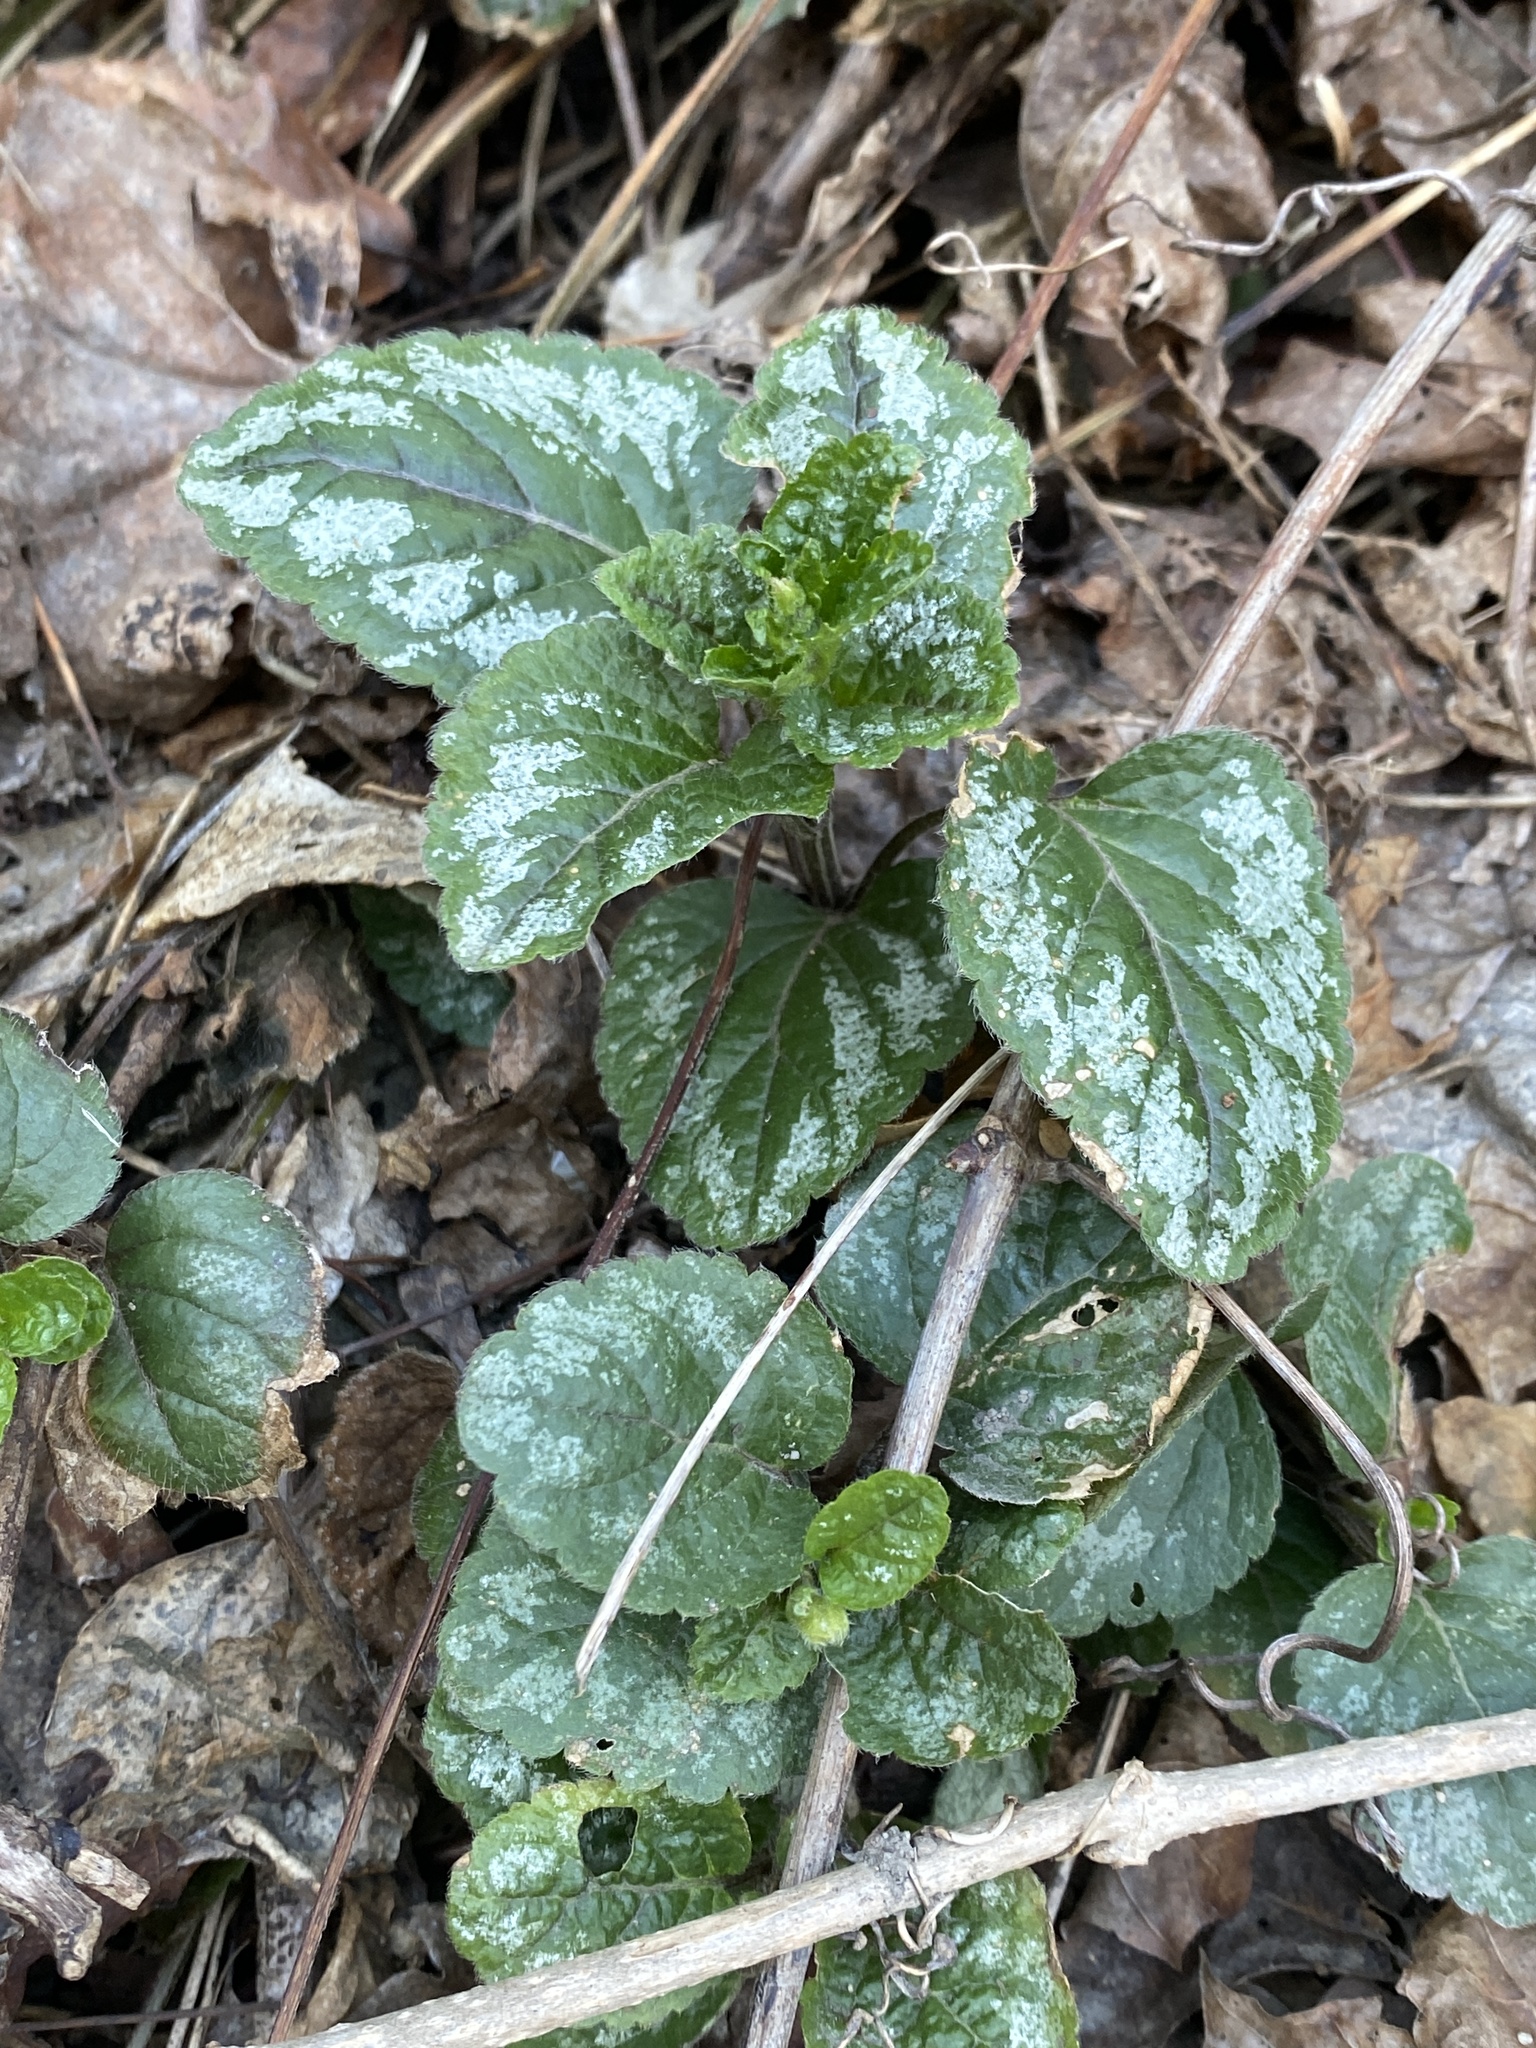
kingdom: Plantae
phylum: Tracheophyta
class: Magnoliopsida
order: Lamiales
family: Lamiaceae
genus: Lamium
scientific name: Lamium galeobdolon
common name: Yellow archangel
